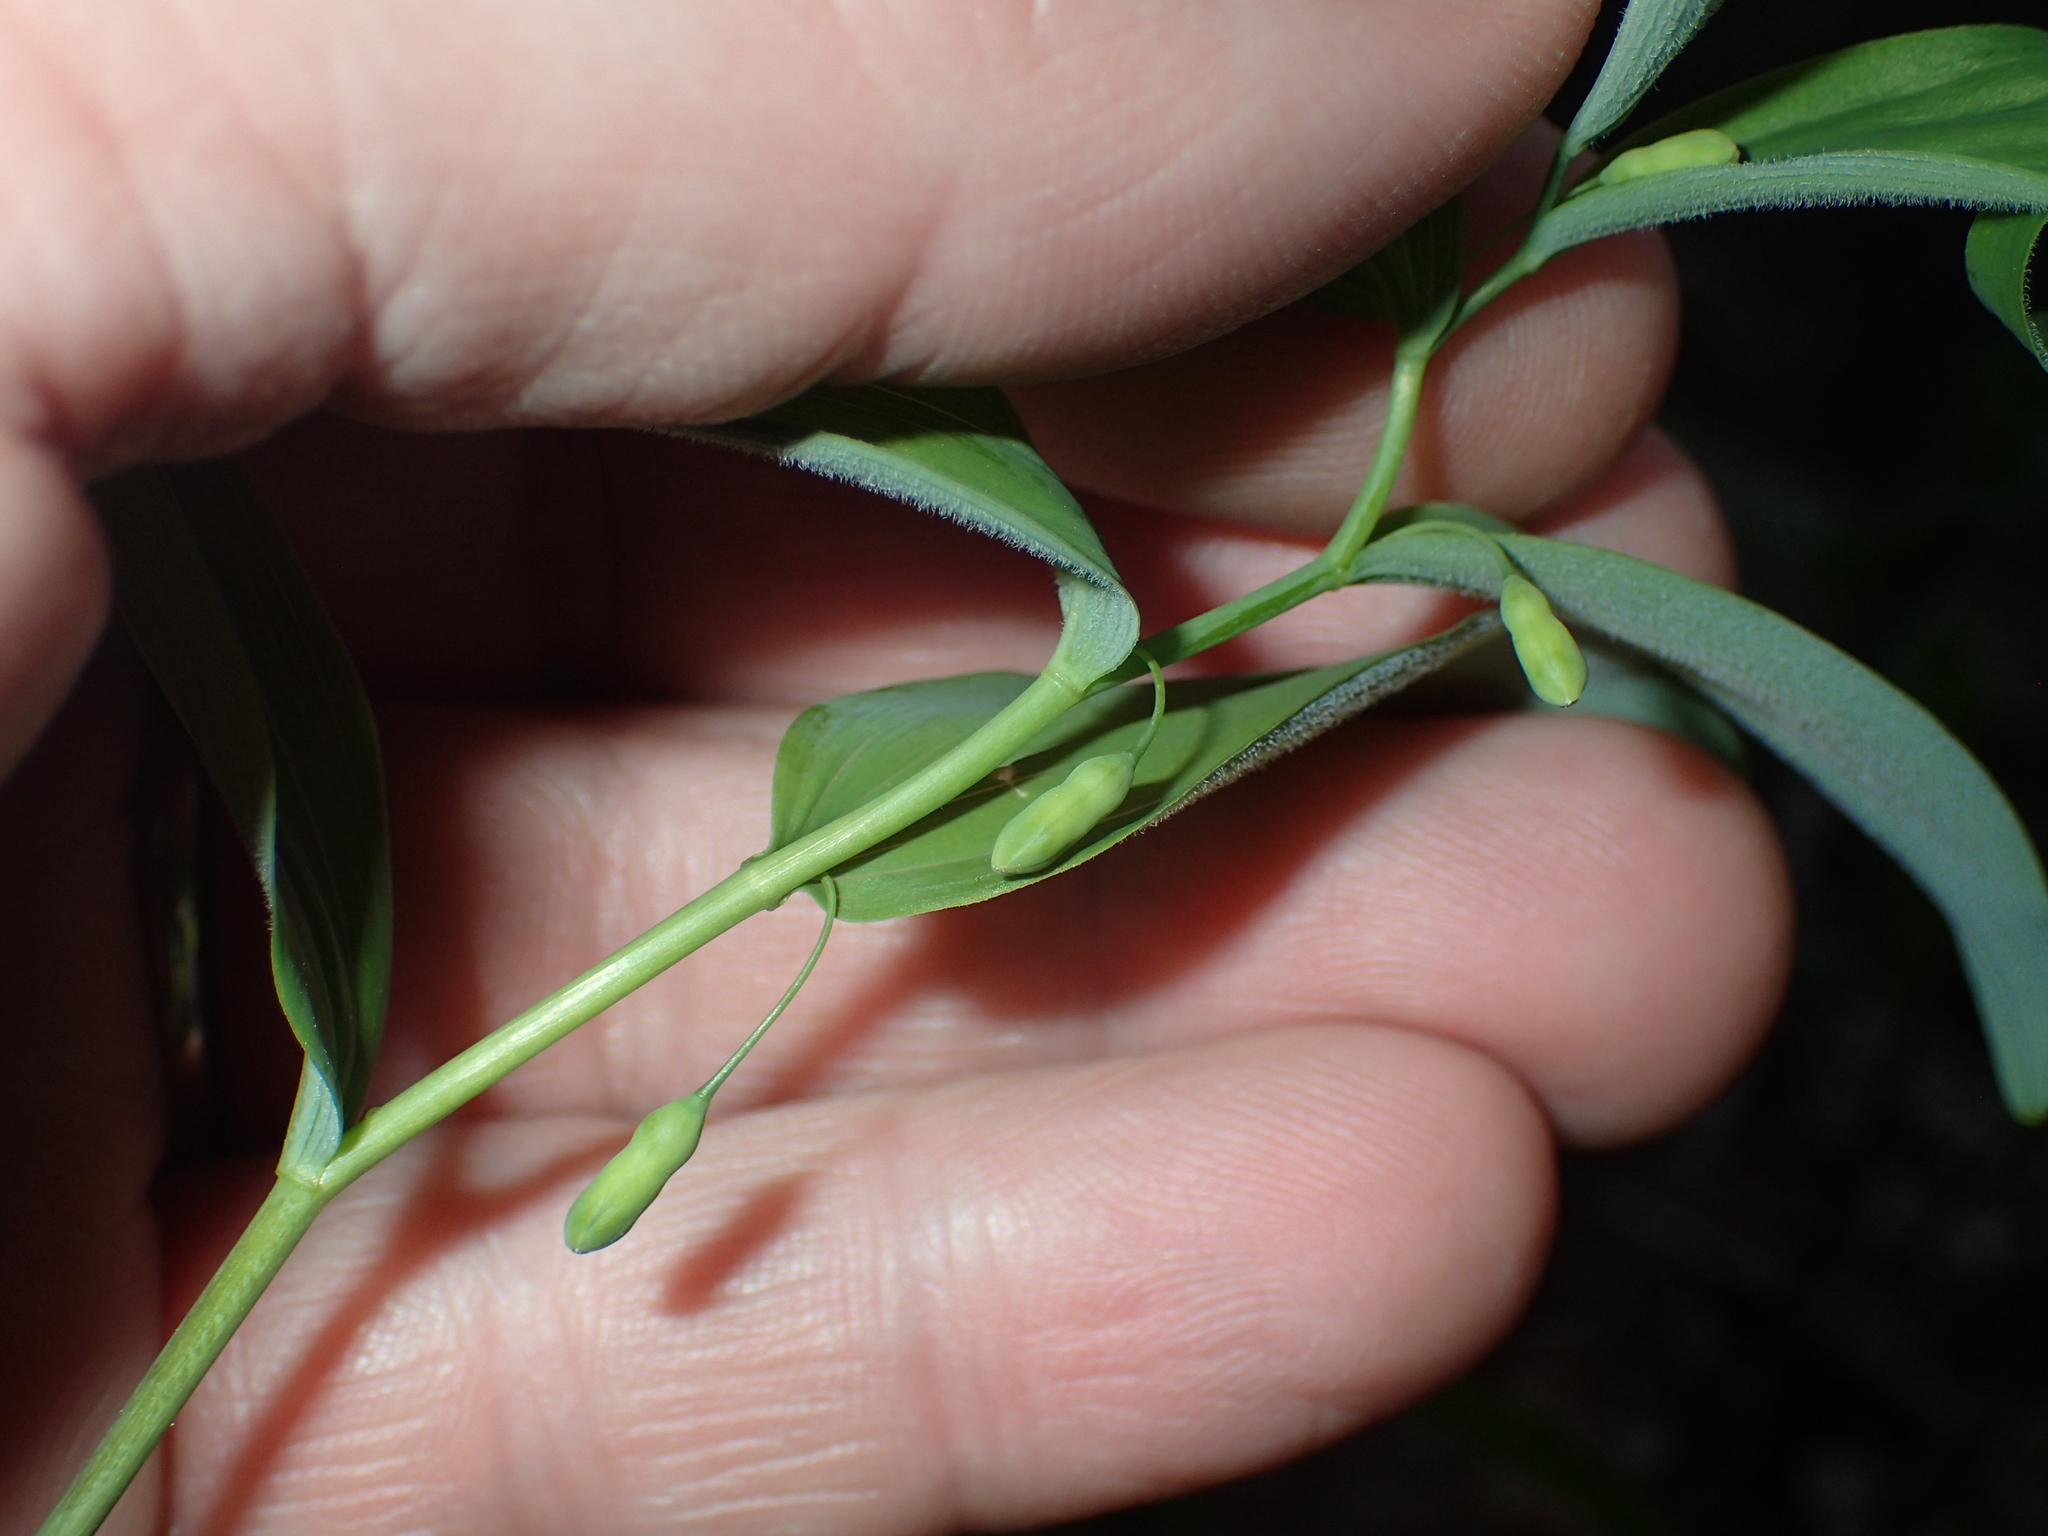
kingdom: Plantae
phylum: Tracheophyta
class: Liliopsida
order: Asparagales
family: Asparagaceae
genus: Polygonatum
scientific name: Polygonatum pubescens
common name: Downy solomon's seal
